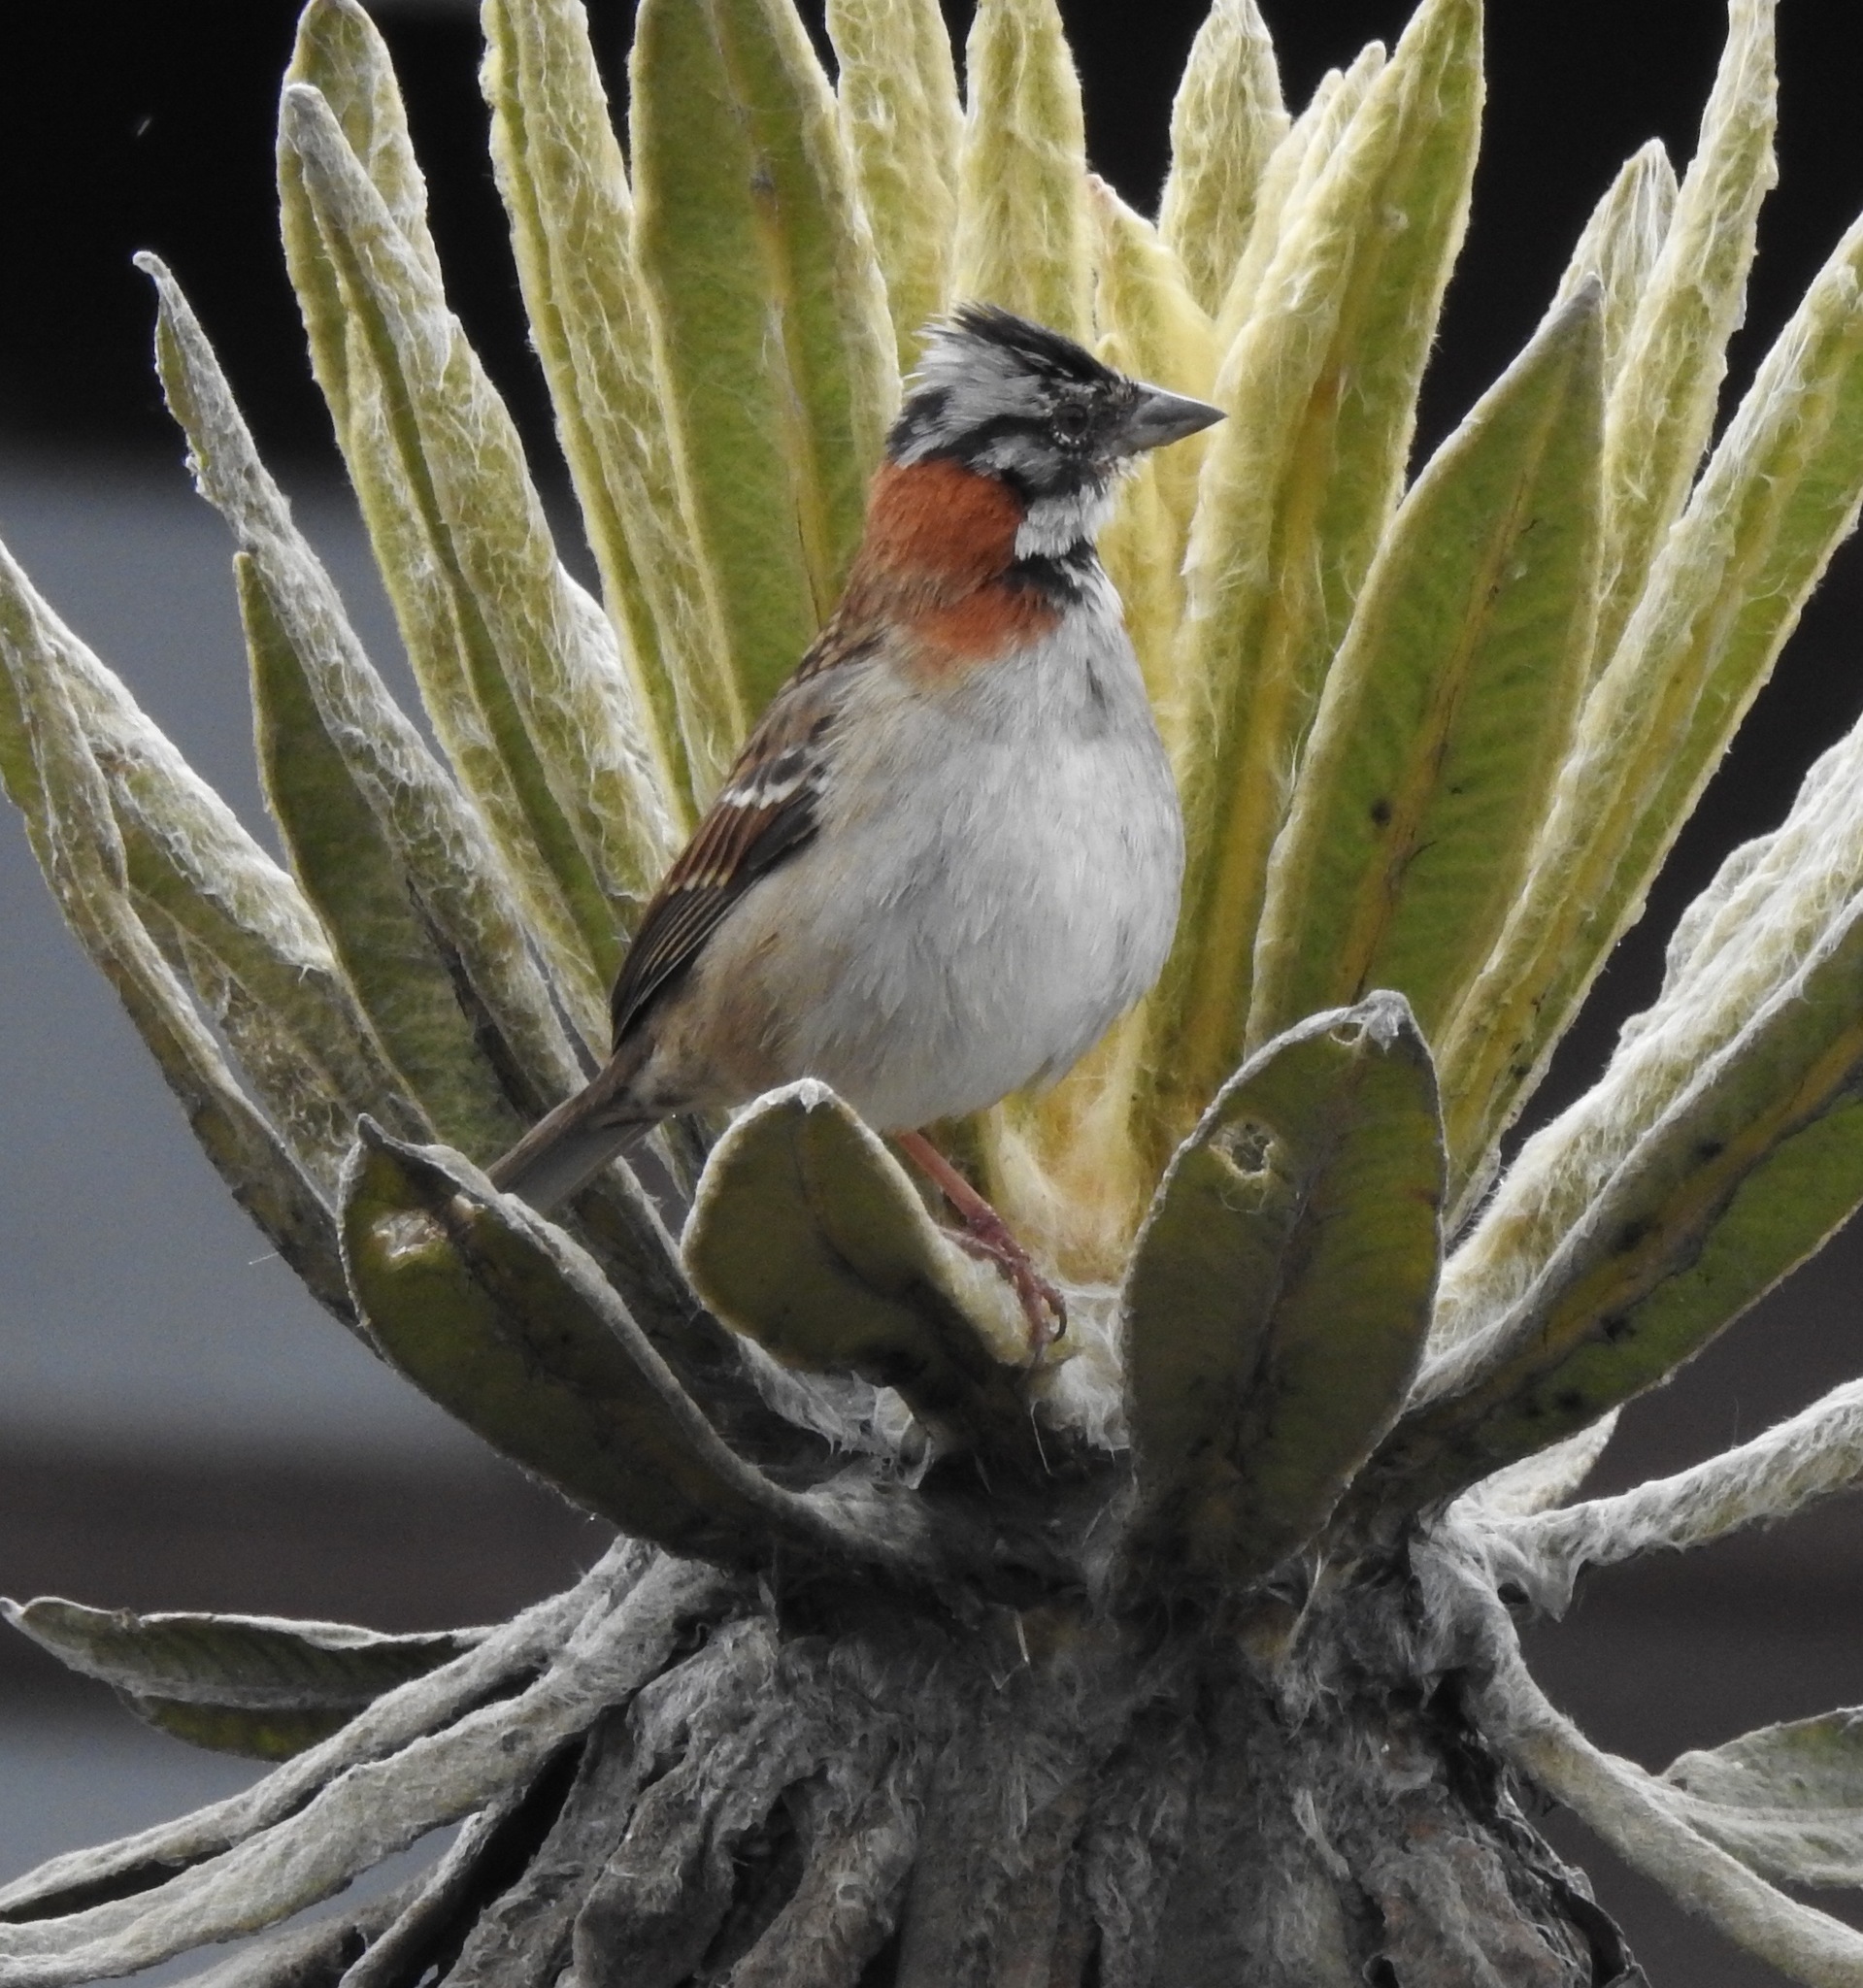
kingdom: Animalia
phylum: Chordata
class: Aves
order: Passeriformes
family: Passerellidae
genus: Zonotrichia
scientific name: Zonotrichia capensis
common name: Rufous-collared sparrow
